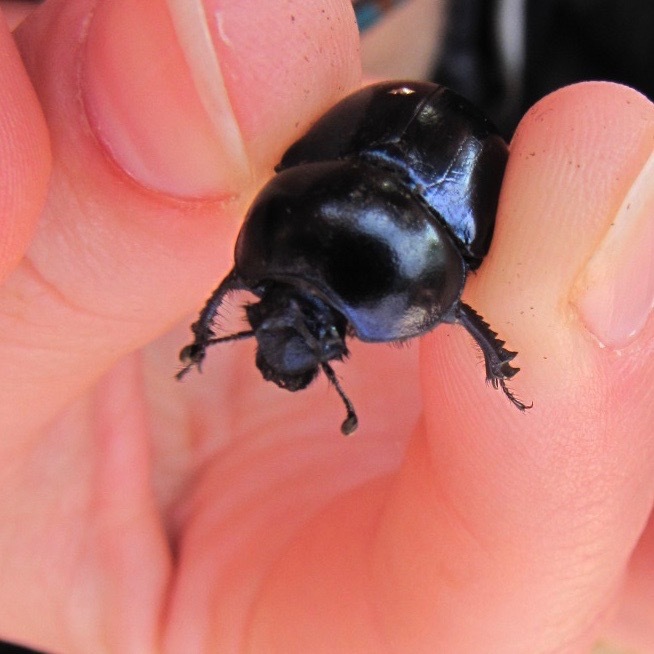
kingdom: Animalia
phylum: Arthropoda
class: Insecta
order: Coleoptera
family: Geotrupidae
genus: Anoplotrupes
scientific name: Anoplotrupes stercorosus
